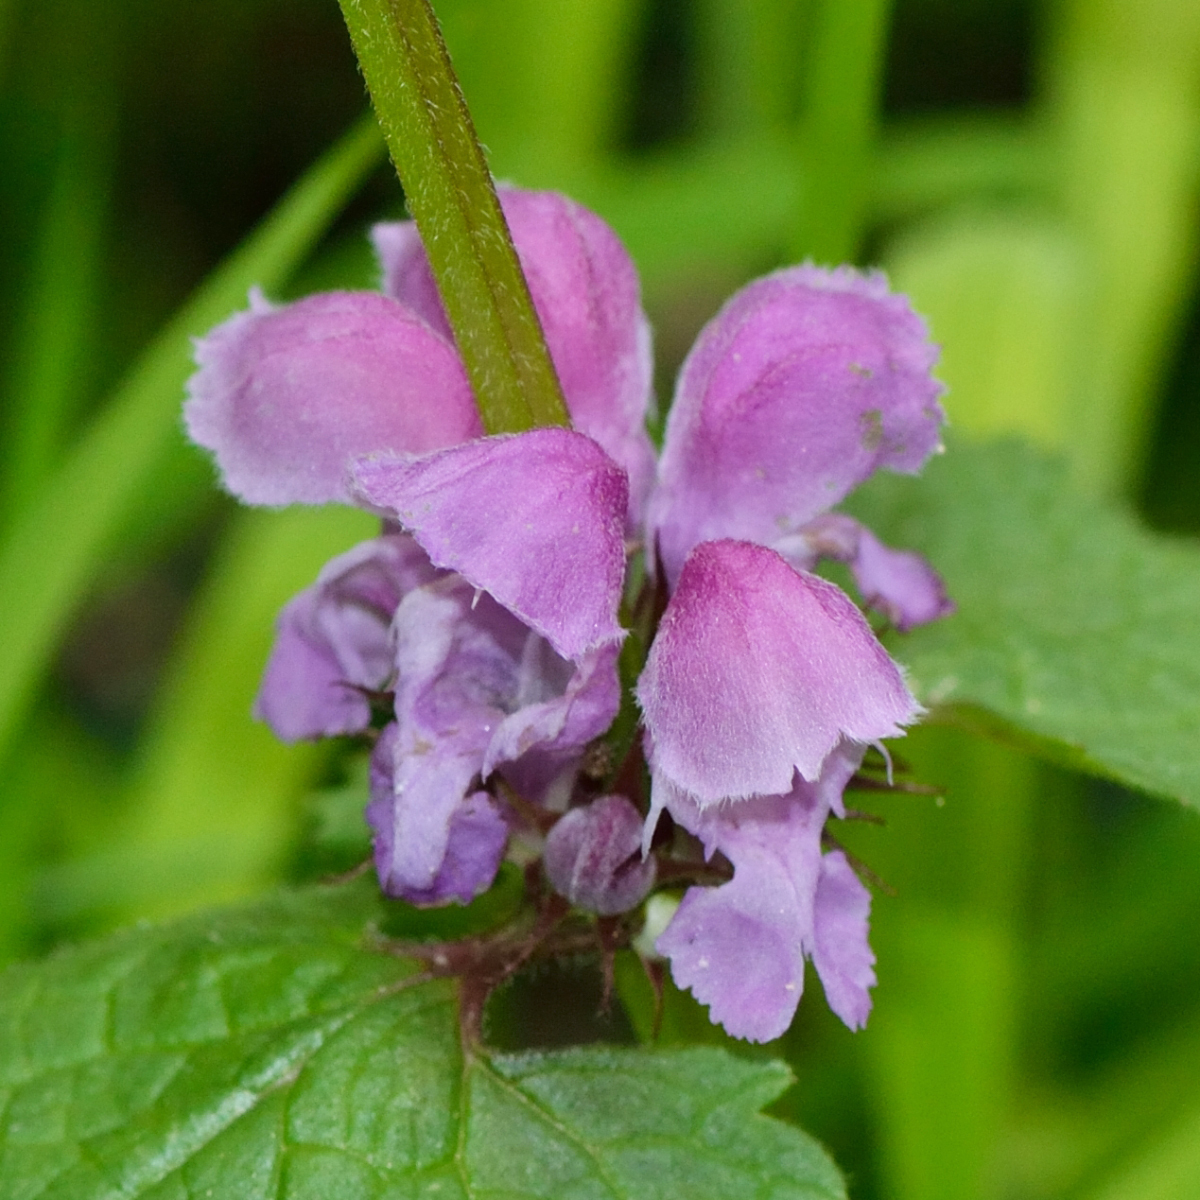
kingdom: Plantae
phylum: Tracheophyta
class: Magnoliopsida
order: Lamiales
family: Lamiaceae
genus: Lamium
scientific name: Lamium maculatum
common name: Spotted dead-nettle
